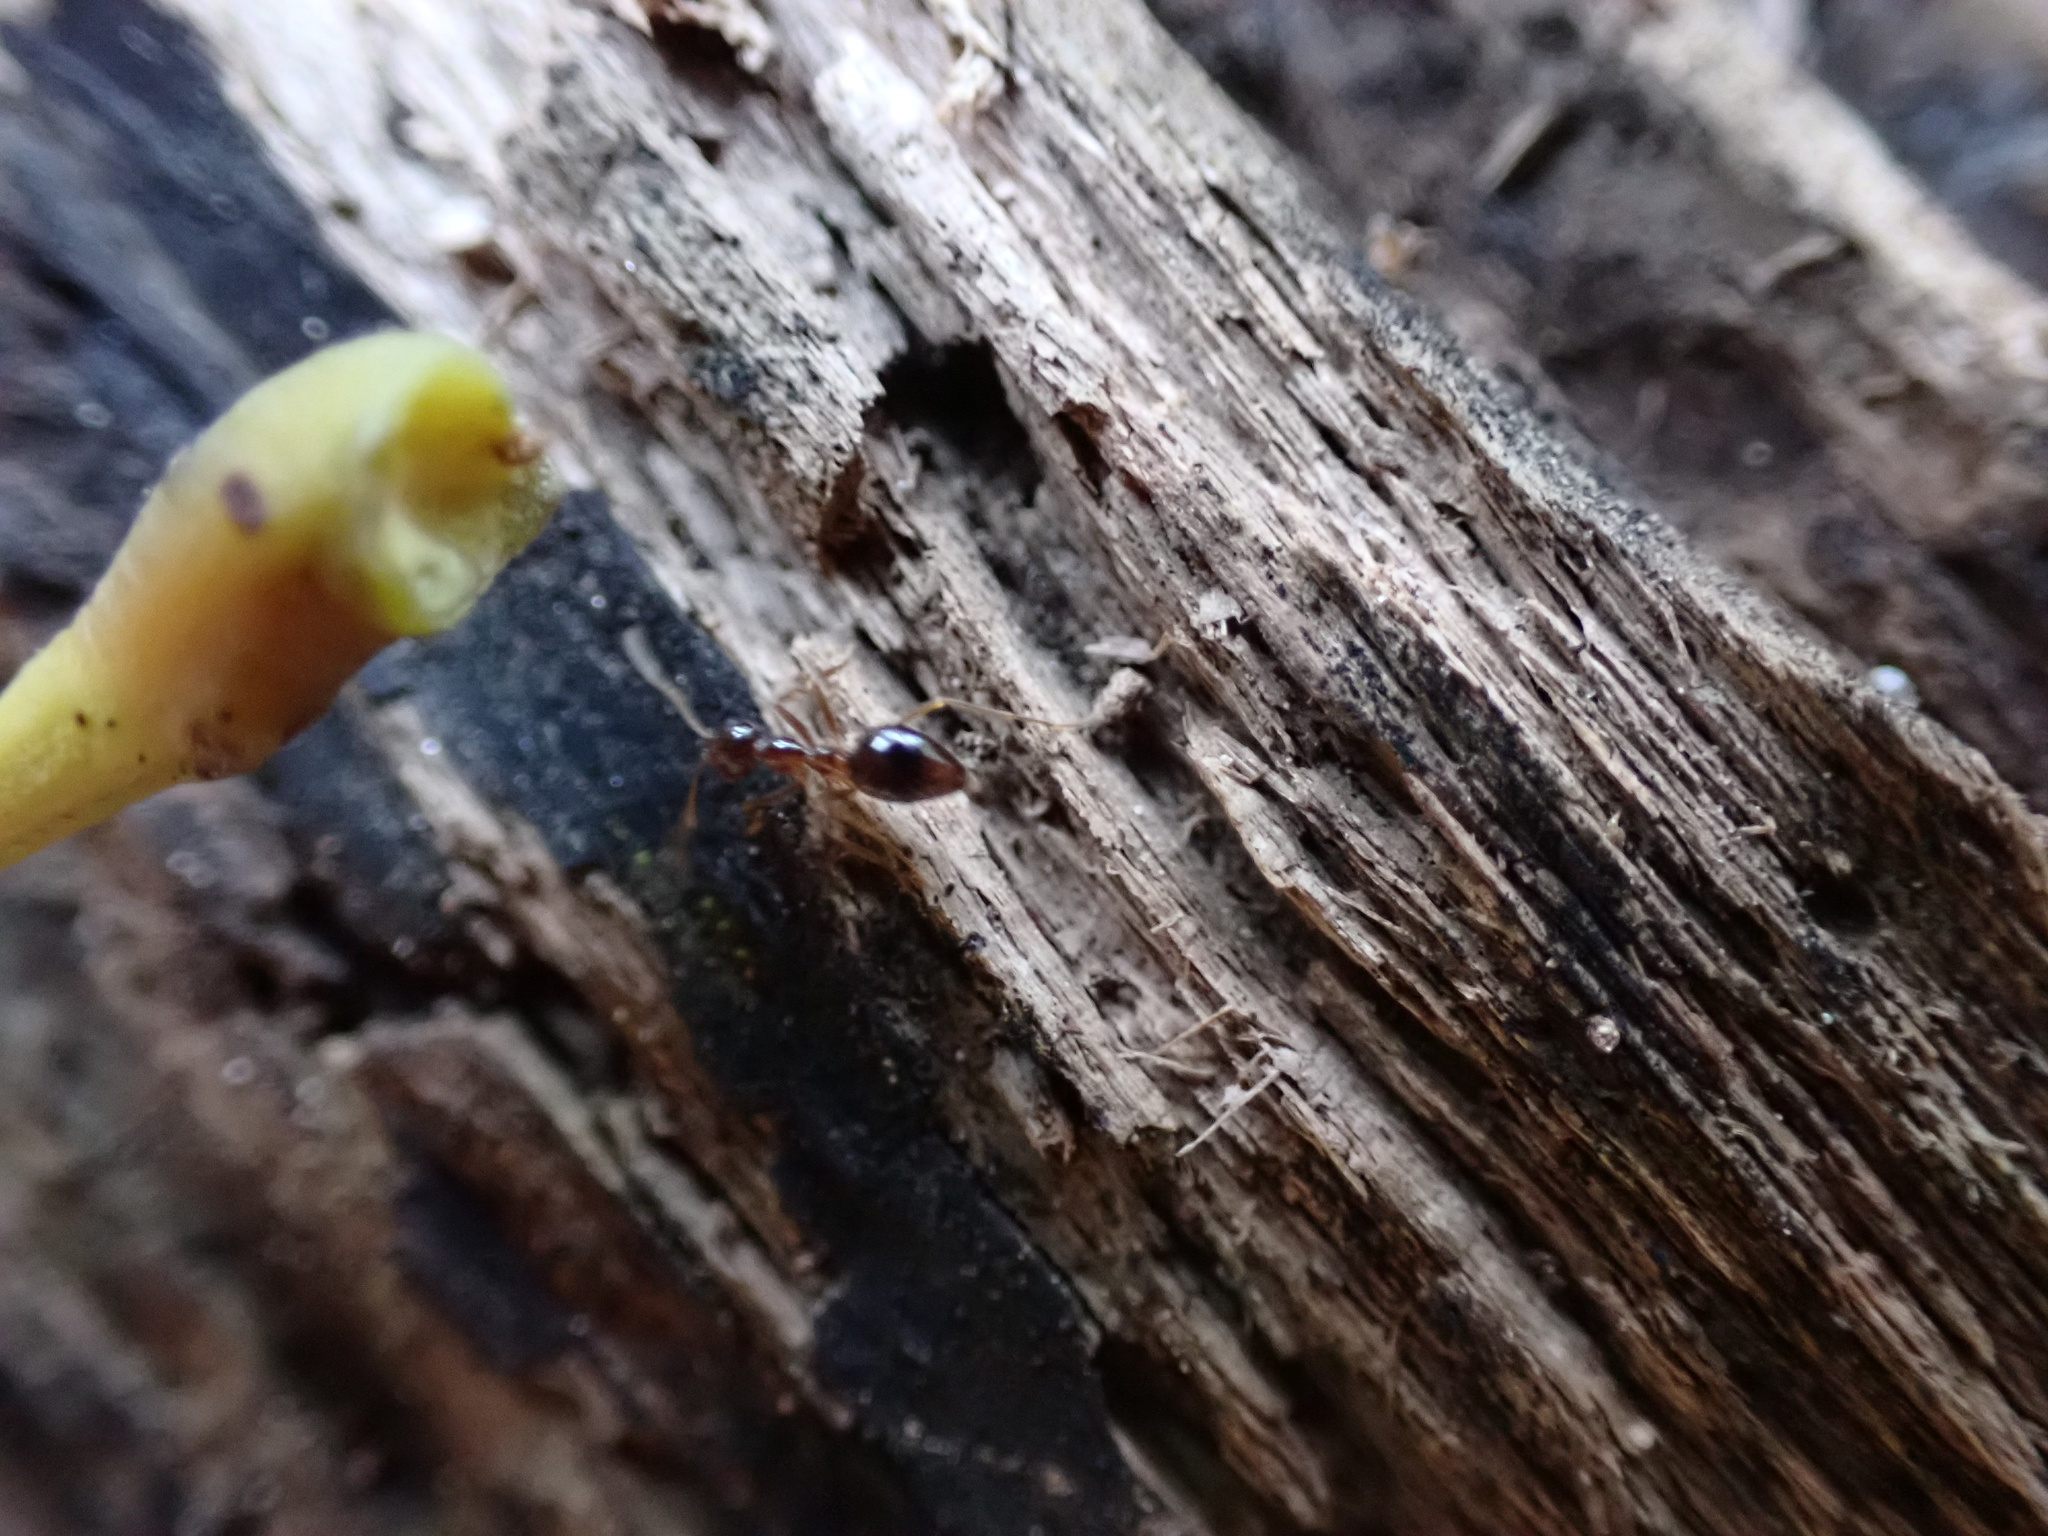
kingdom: Animalia
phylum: Arthropoda
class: Insecta
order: Hymenoptera
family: Formicidae
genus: Prenolepis
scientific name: Prenolepis imparis
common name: Small honey ant
